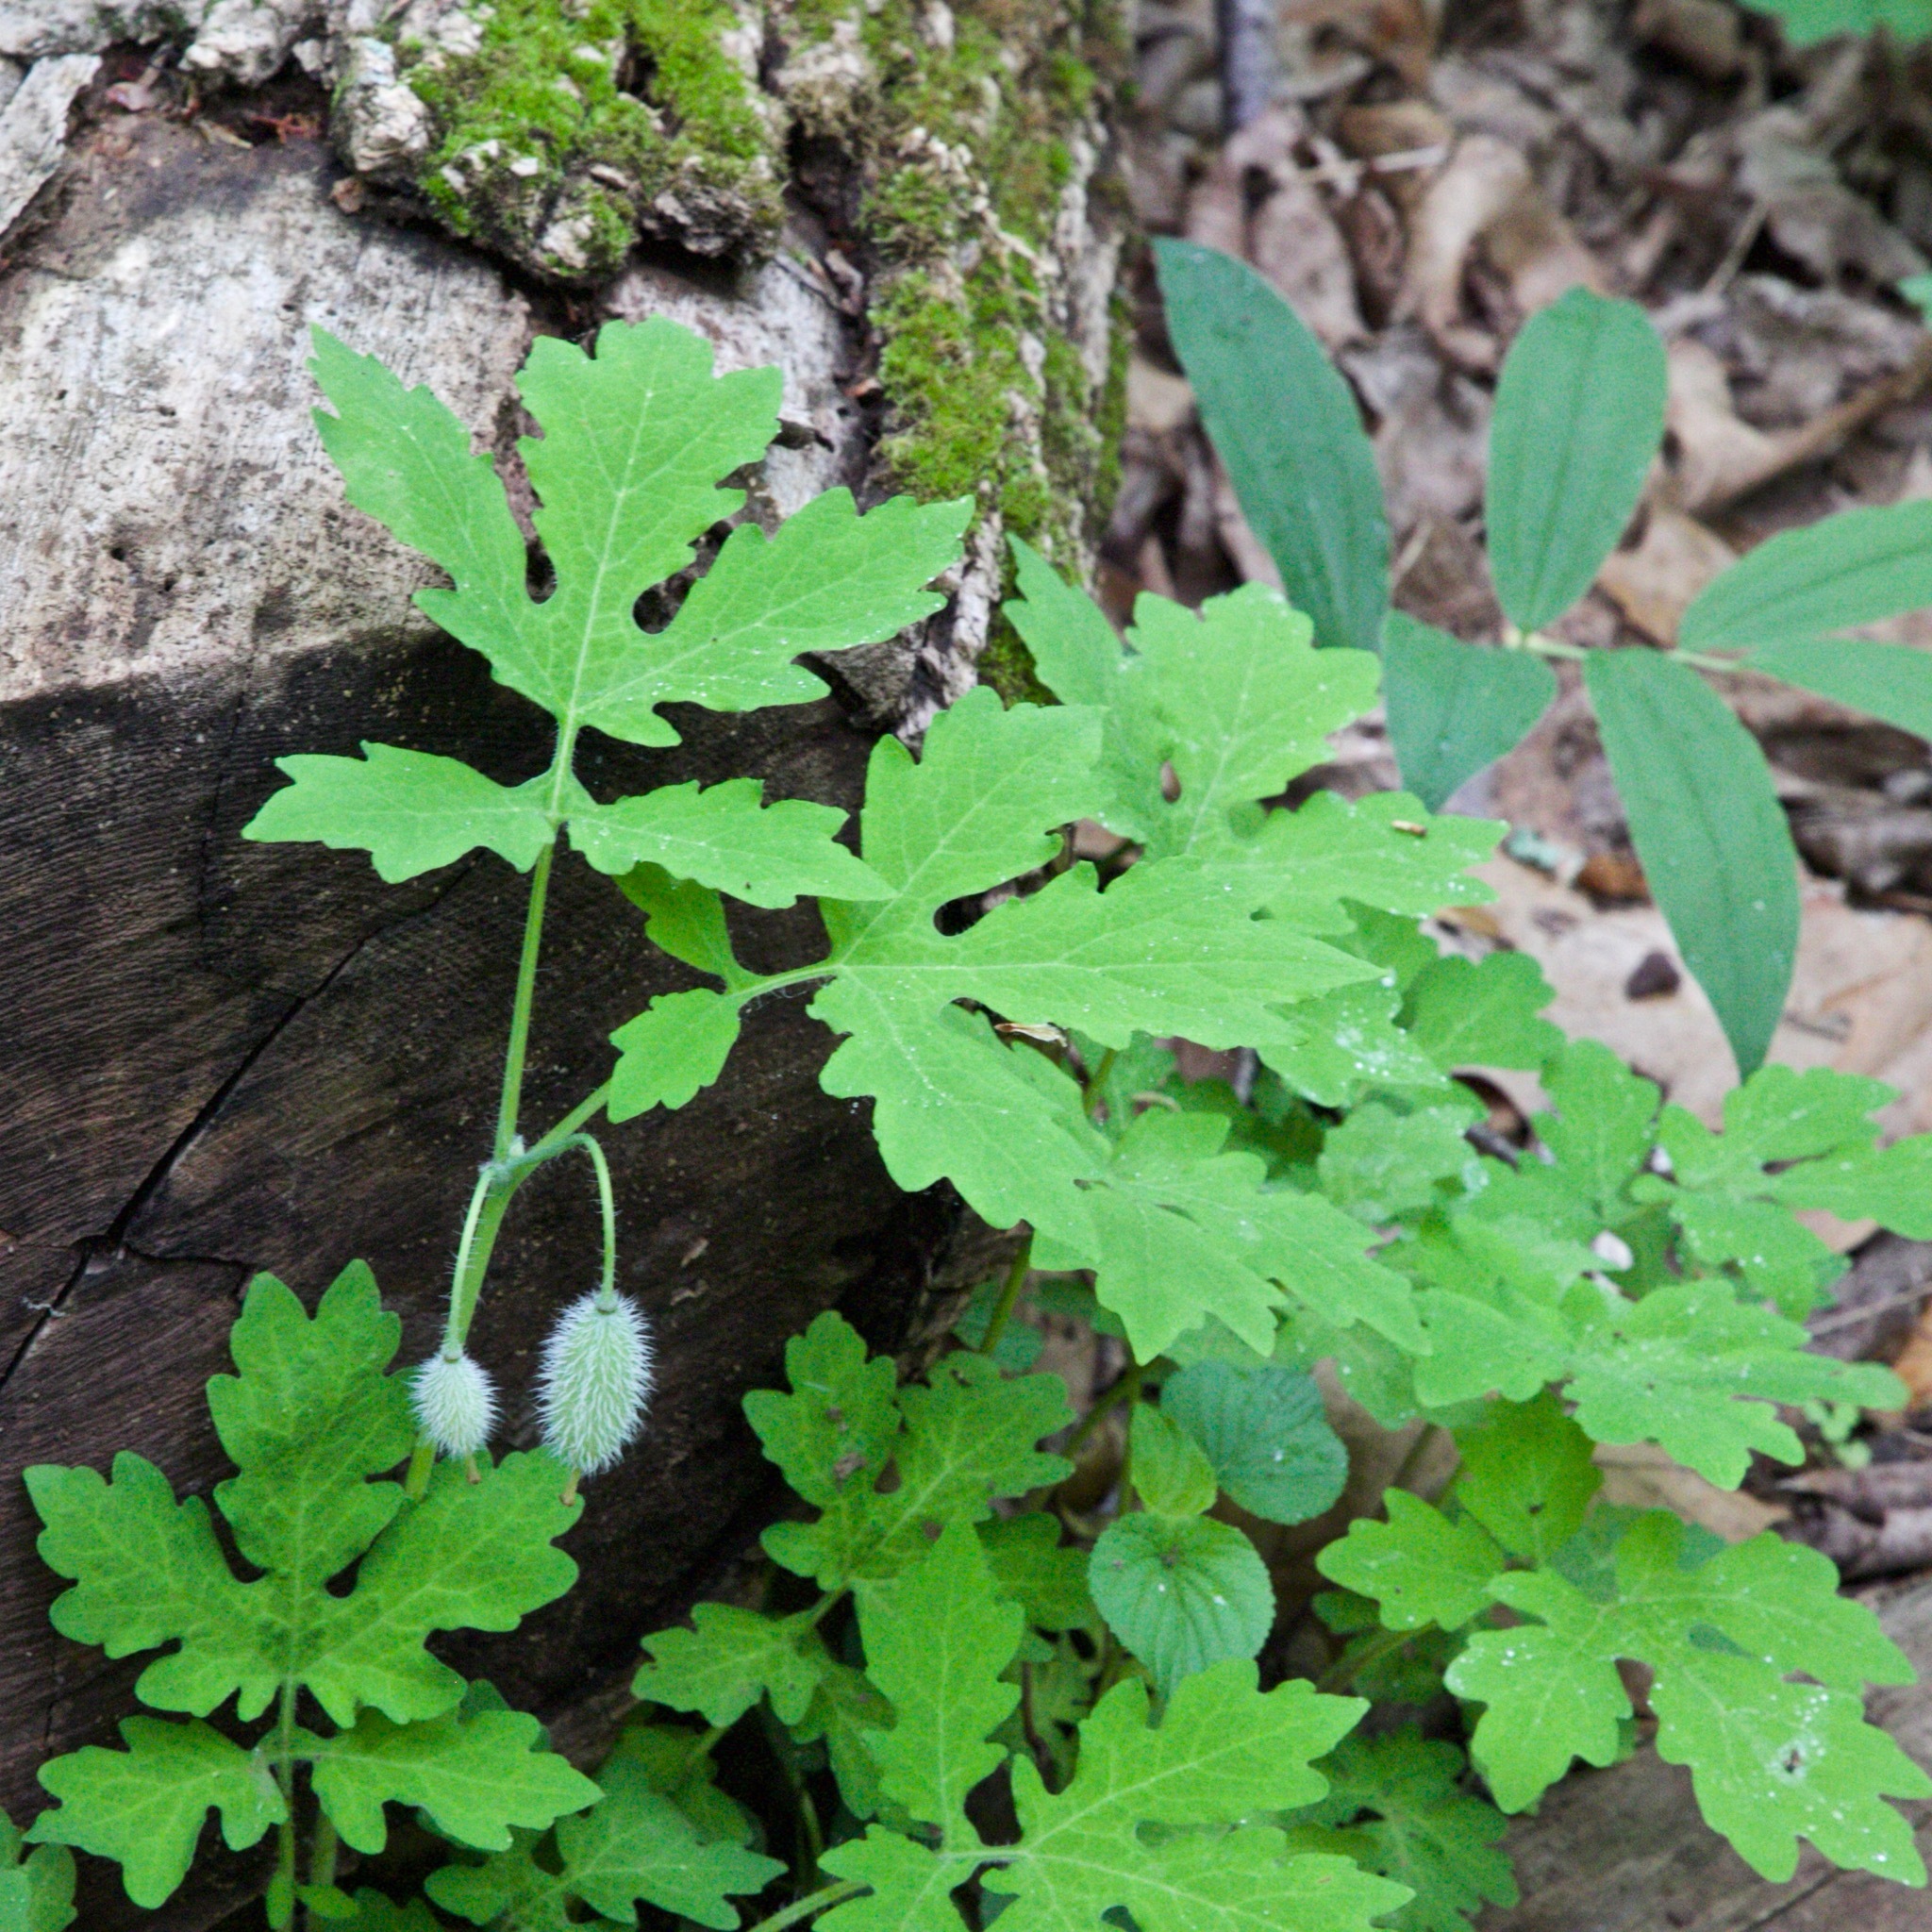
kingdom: Plantae
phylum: Tracheophyta
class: Magnoliopsida
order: Ranunculales
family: Papaveraceae
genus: Stylophorum
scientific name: Stylophorum diphyllum
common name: Celandine poppy
